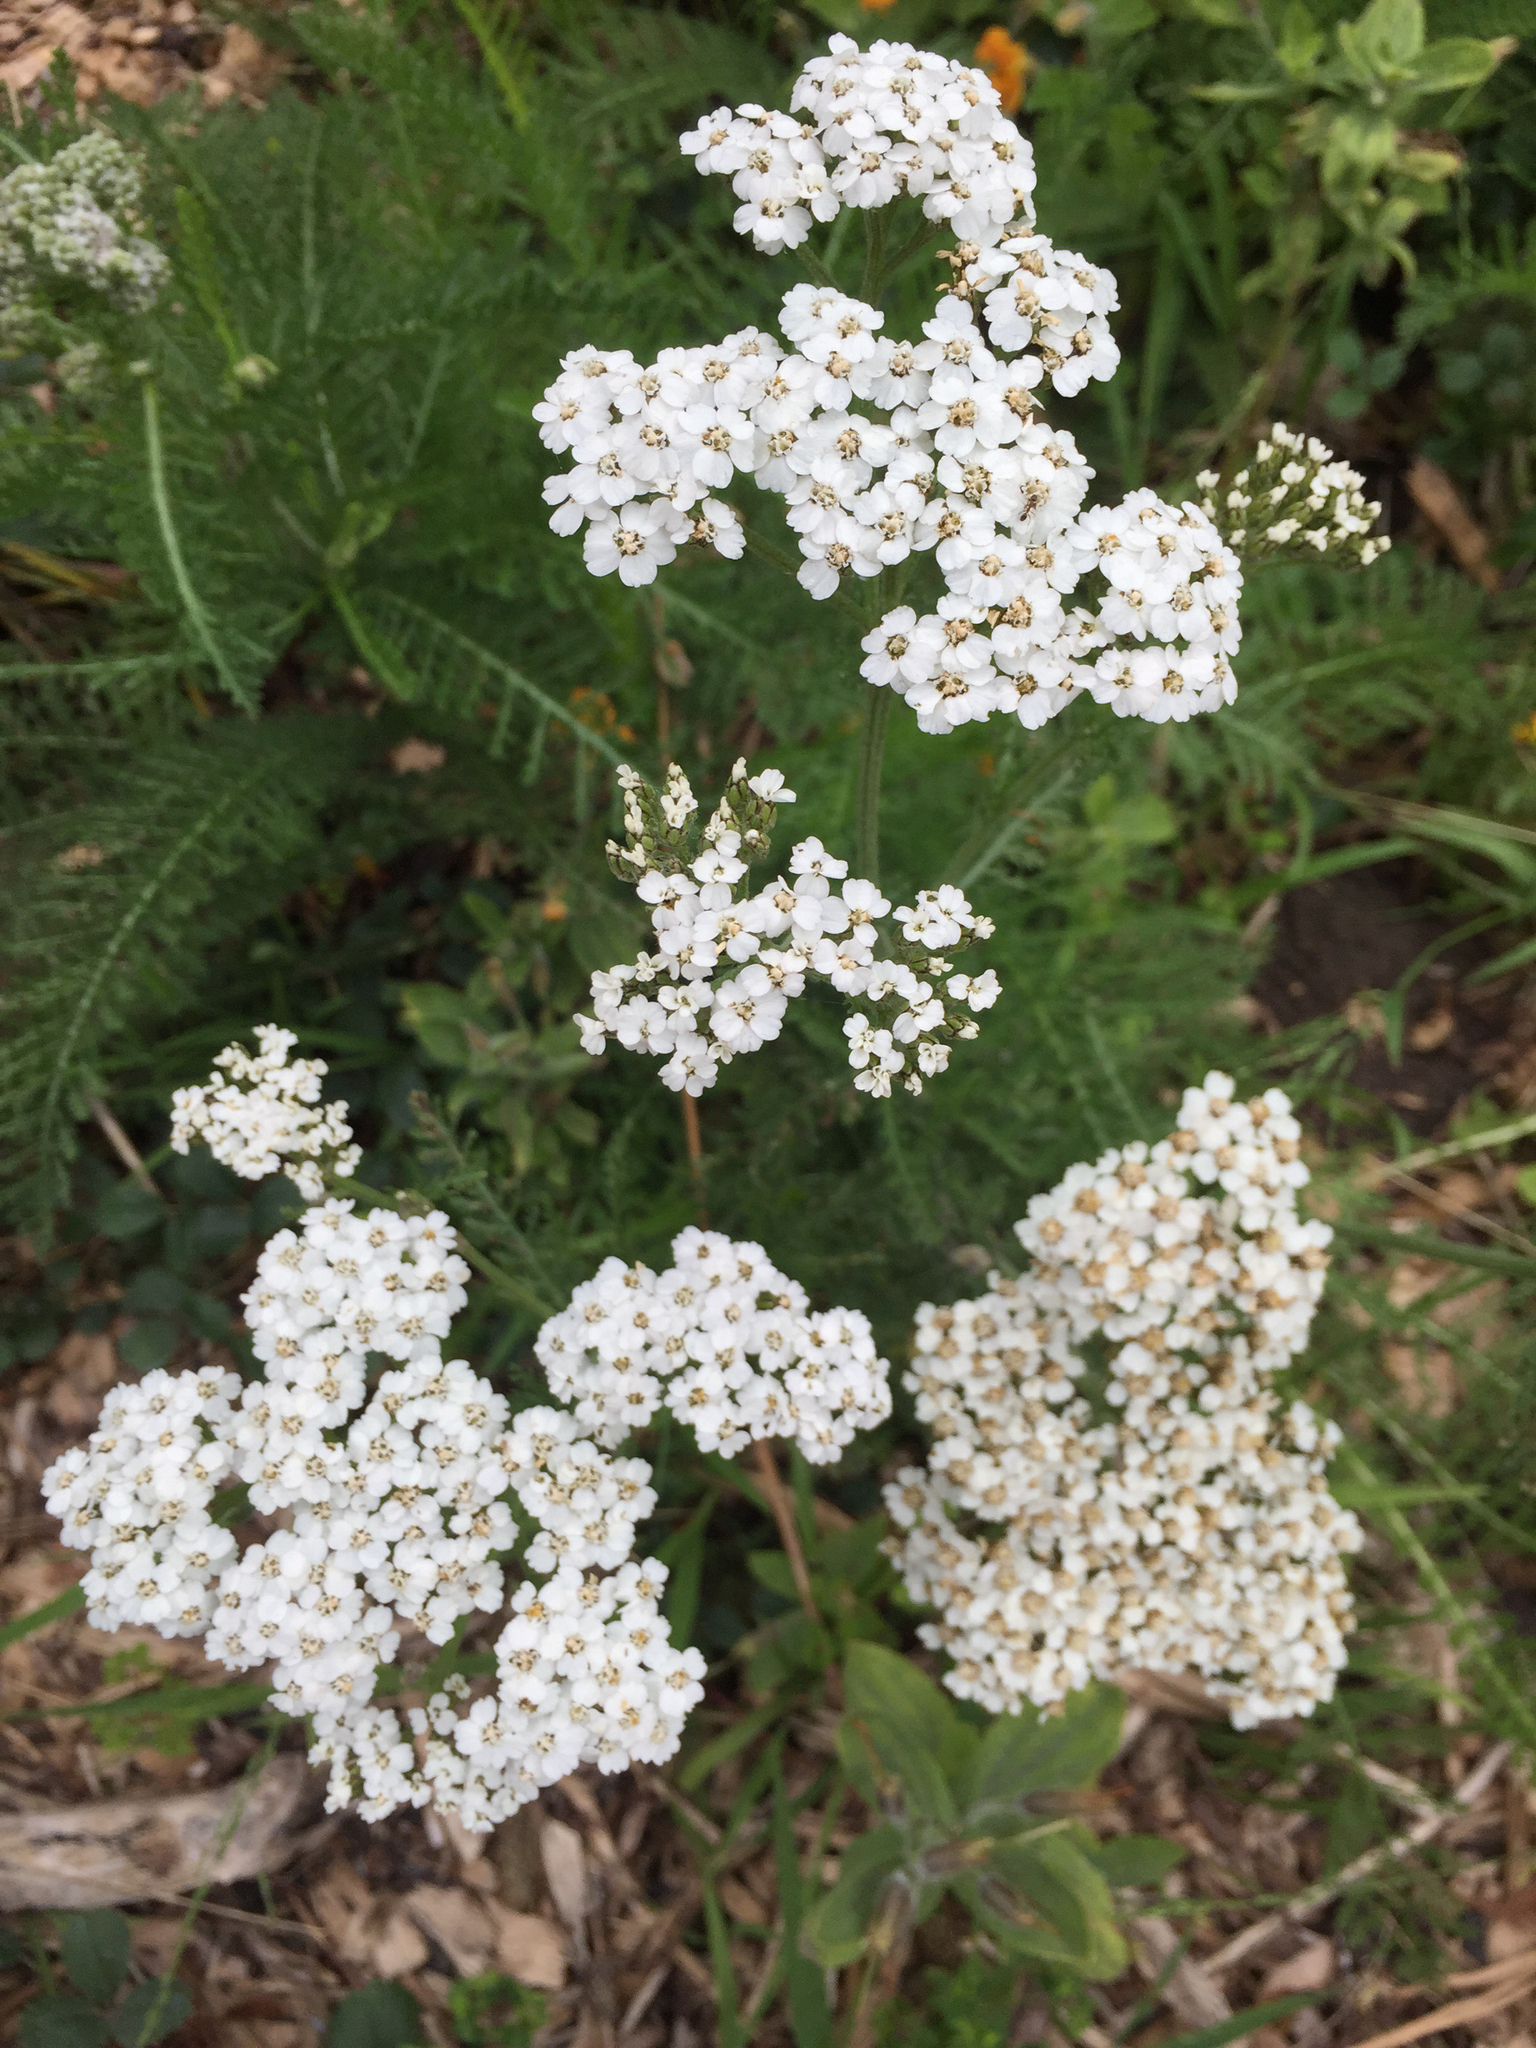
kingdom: Plantae
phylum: Tracheophyta
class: Magnoliopsida
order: Asterales
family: Asteraceae
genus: Achillea
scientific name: Achillea millefolium
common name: Yarrow
